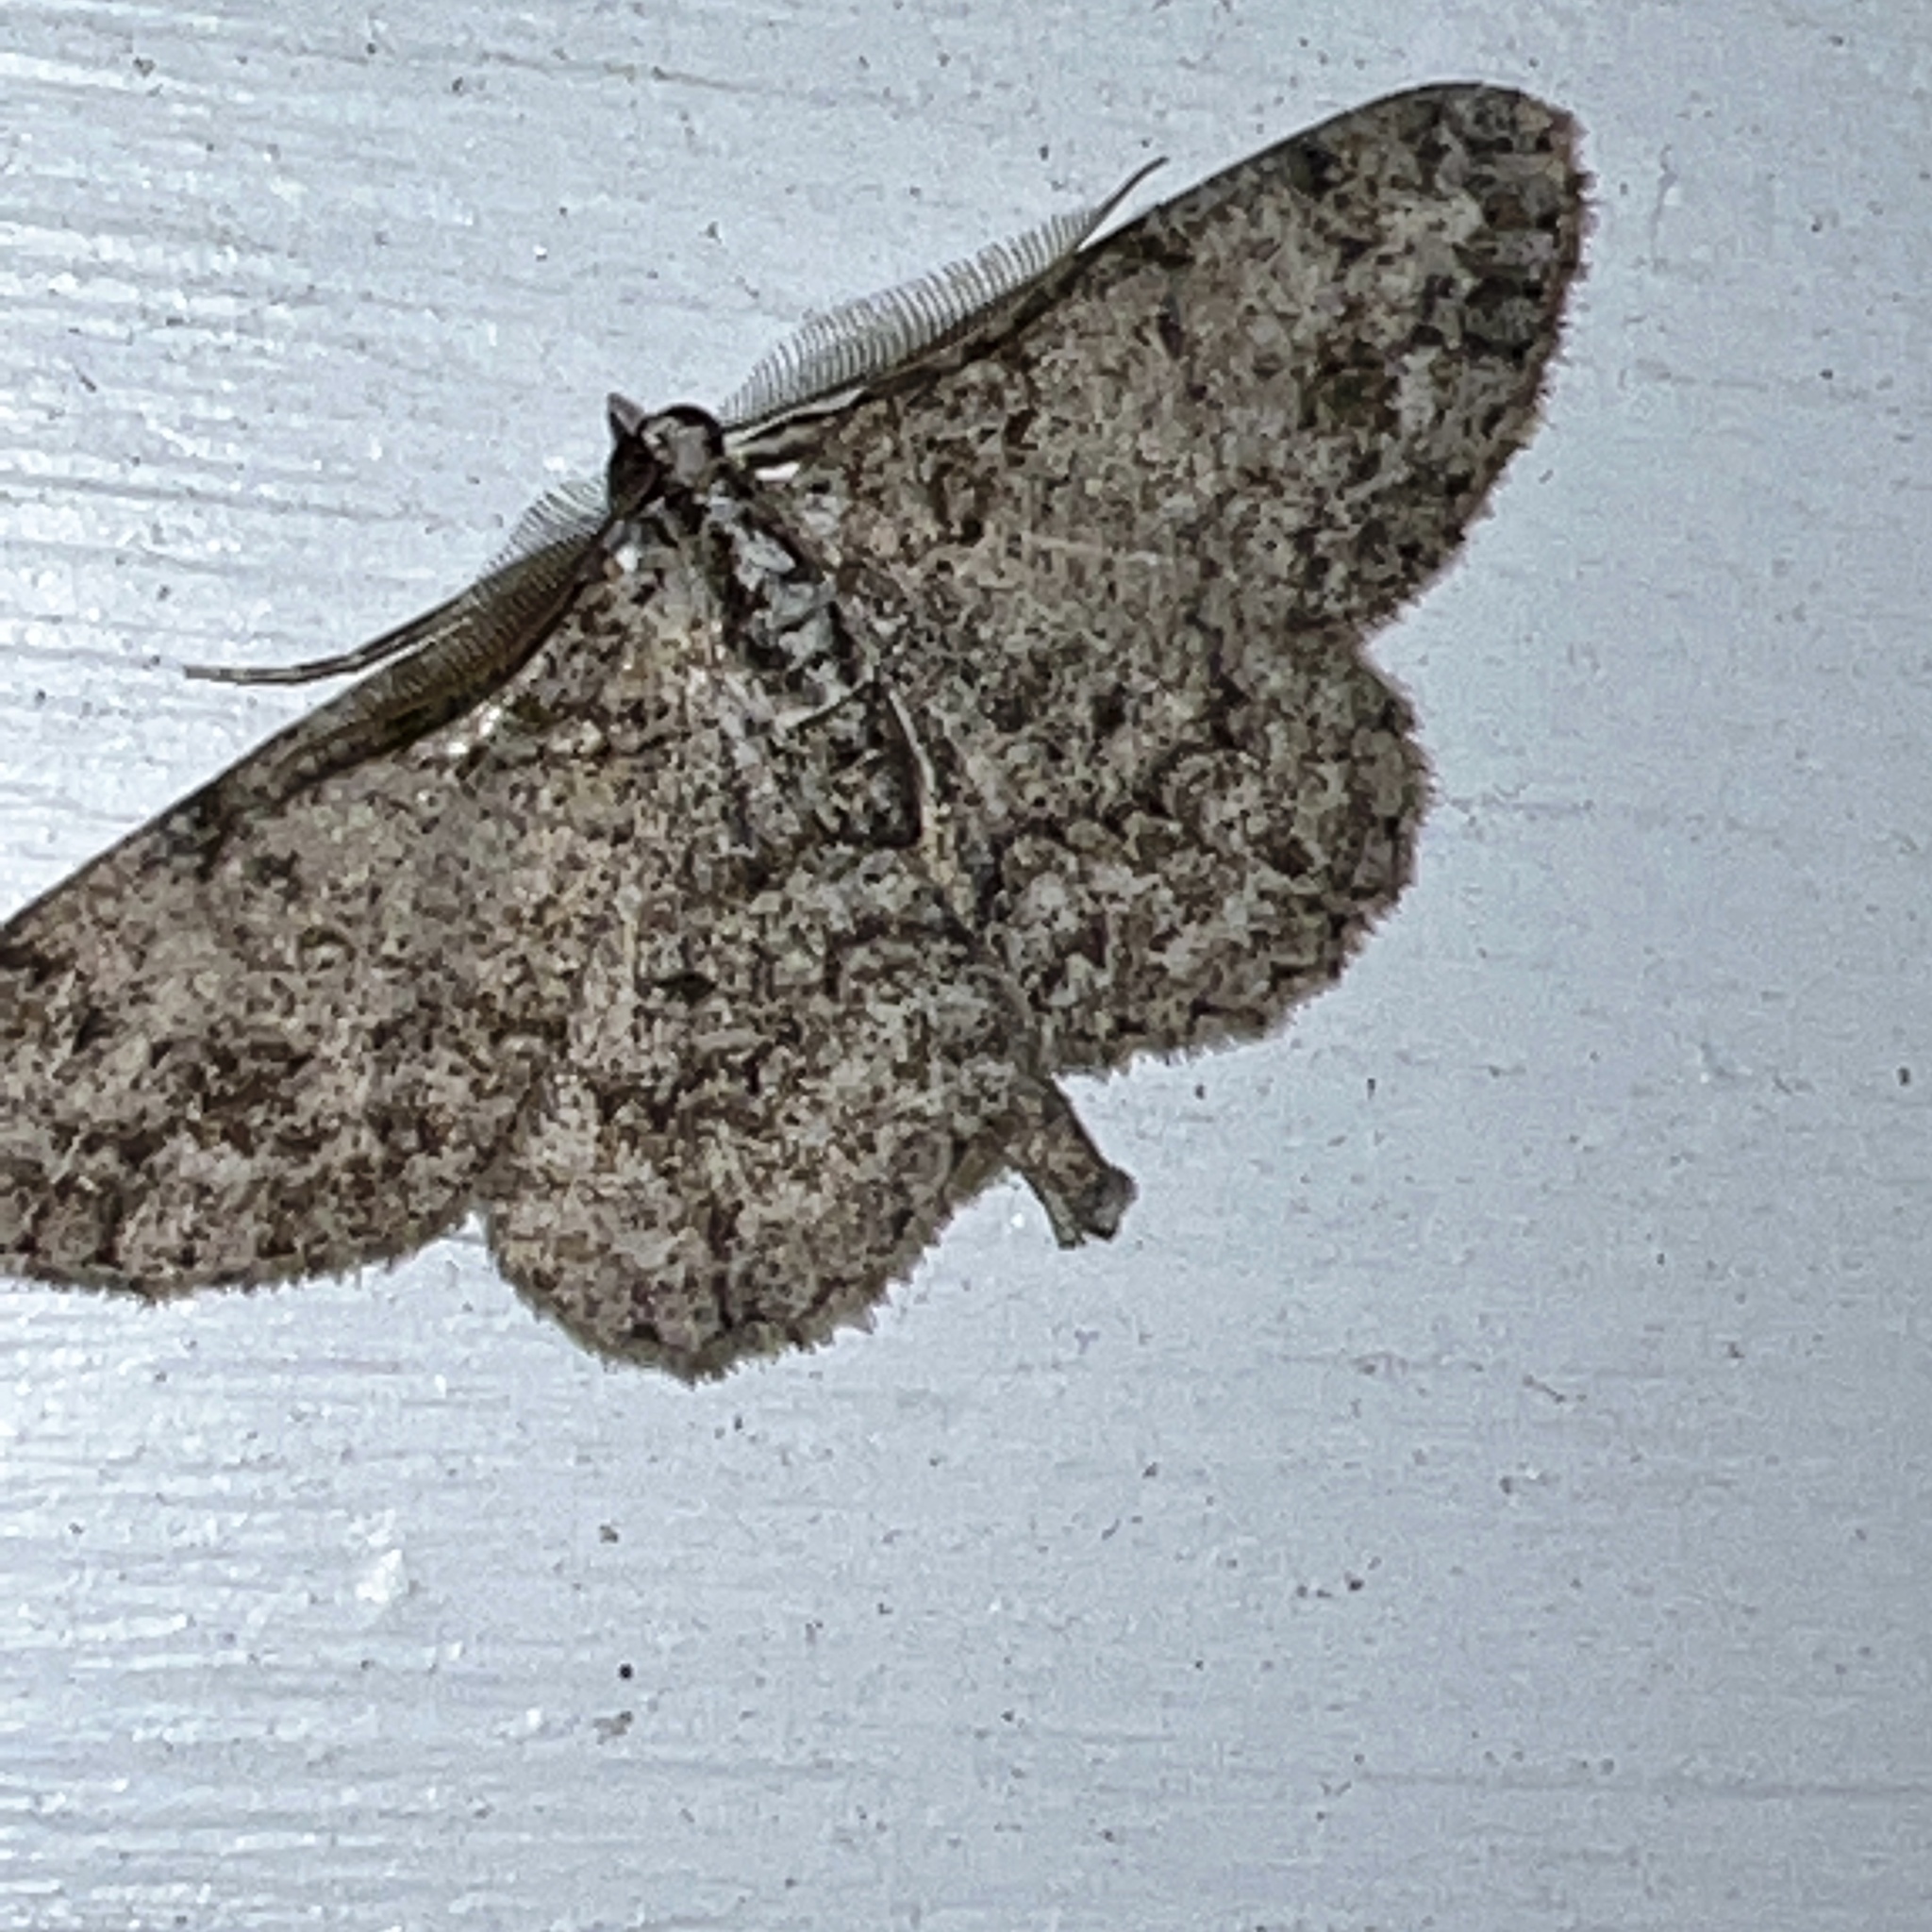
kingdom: Animalia
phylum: Arthropoda
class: Insecta
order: Lepidoptera
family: Geometridae
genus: Protoboarmia
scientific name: Protoboarmia porcelaria
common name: Porcelain gray
